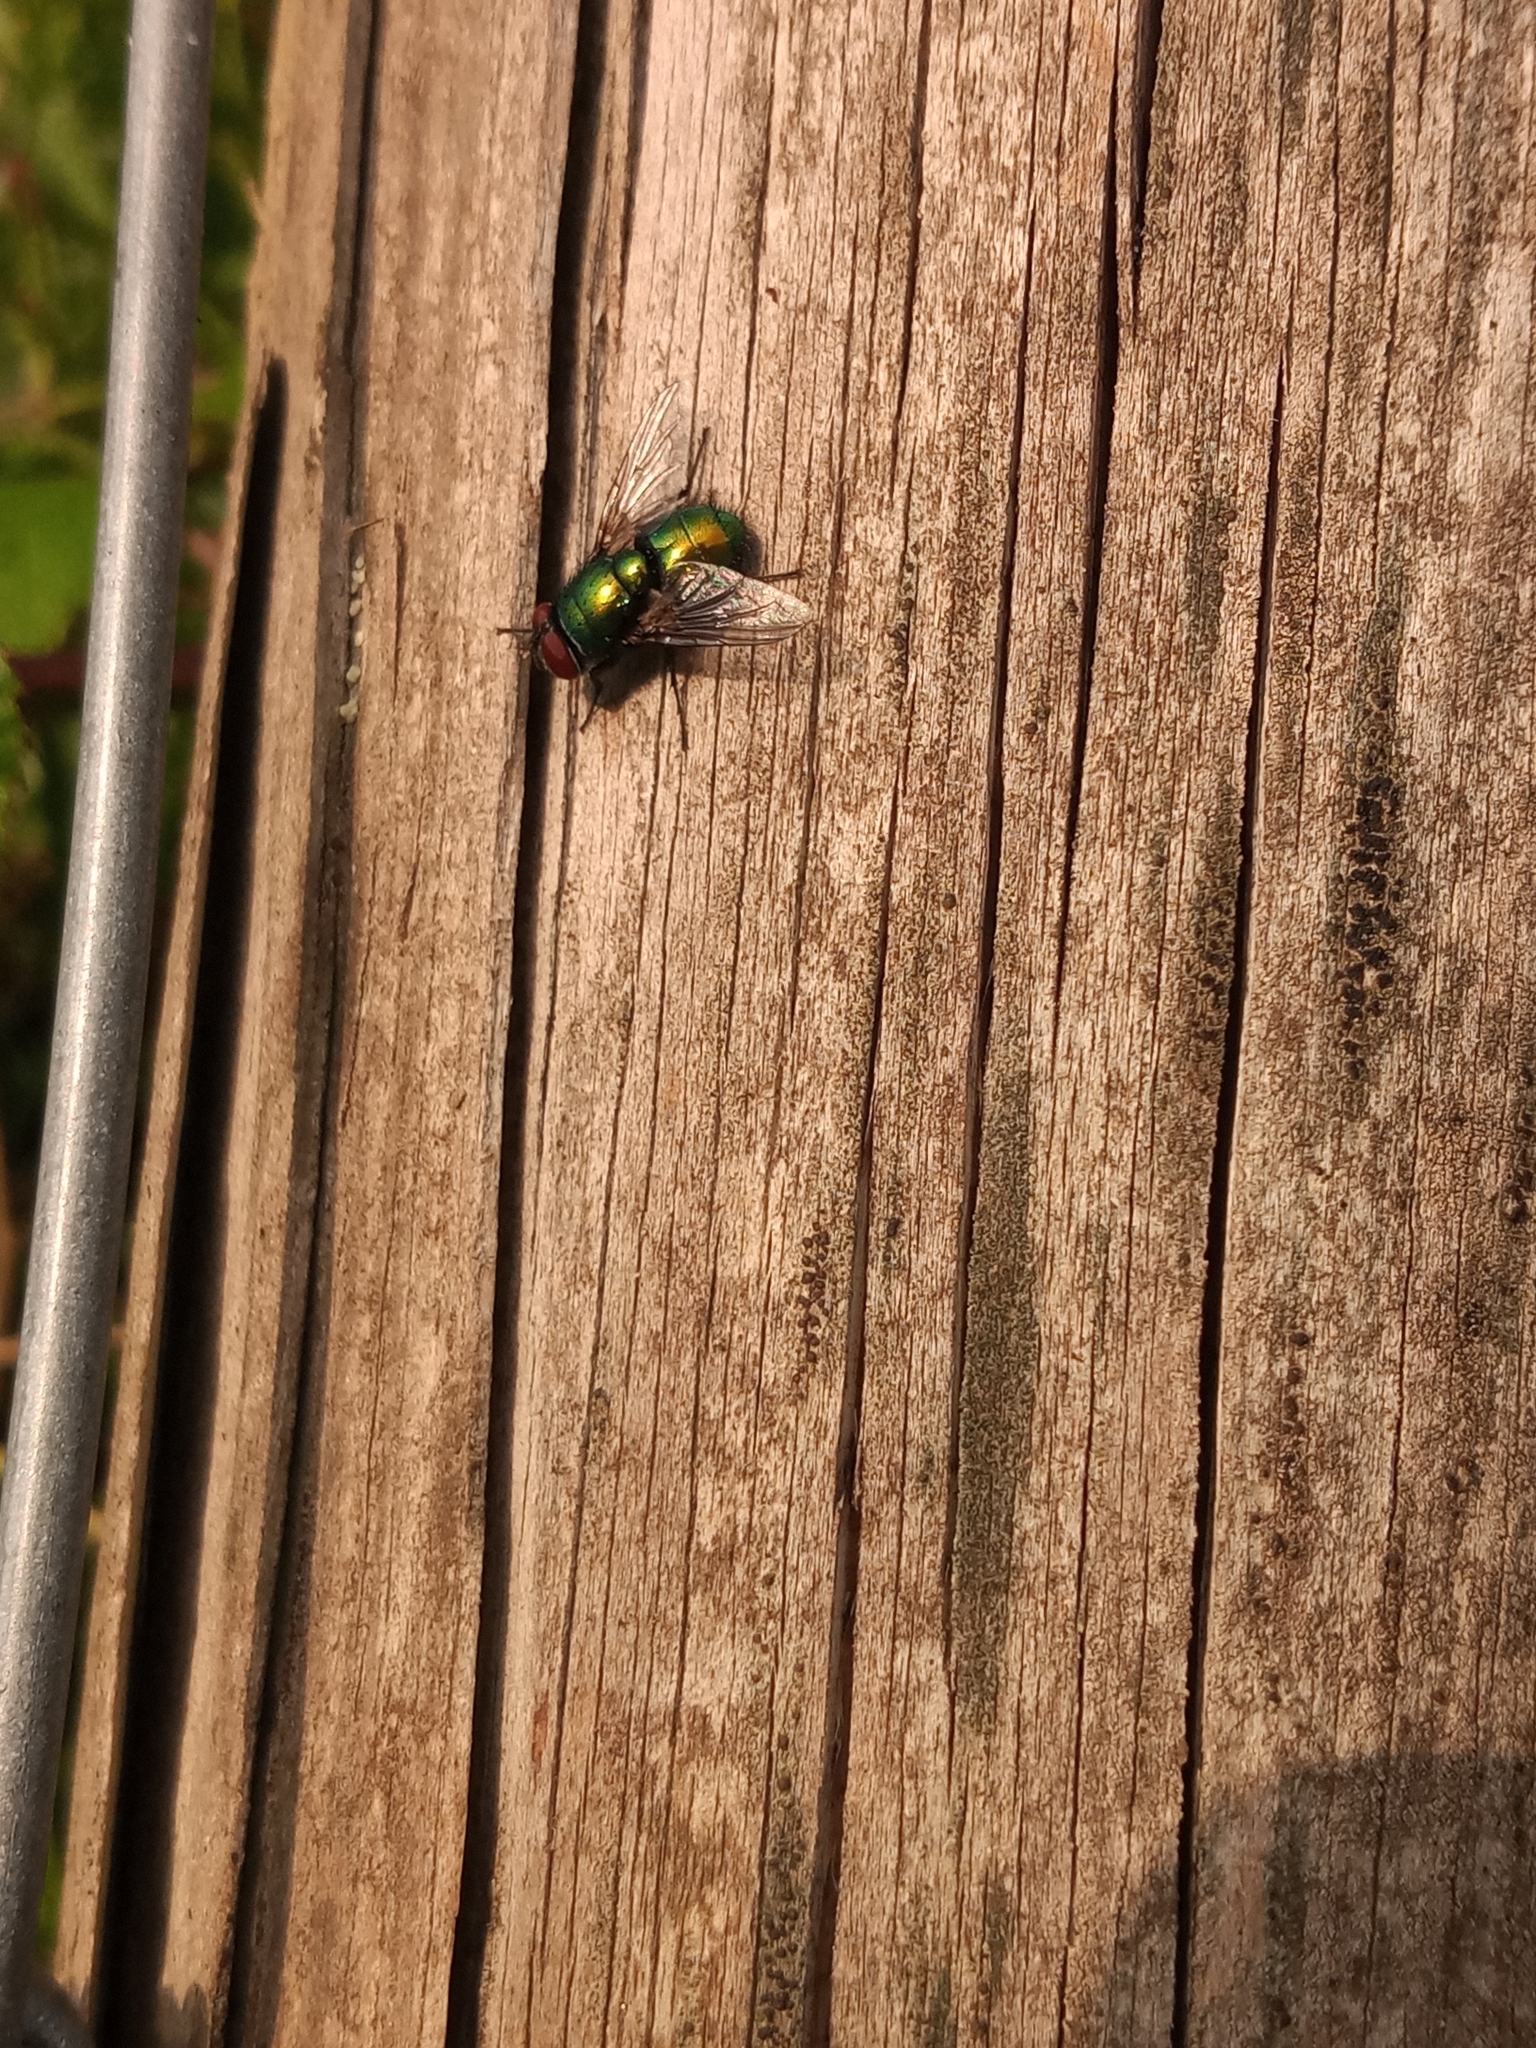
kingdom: Animalia
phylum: Arthropoda
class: Insecta
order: Diptera
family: Calliphoridae
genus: Lucilia
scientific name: Lucilia
